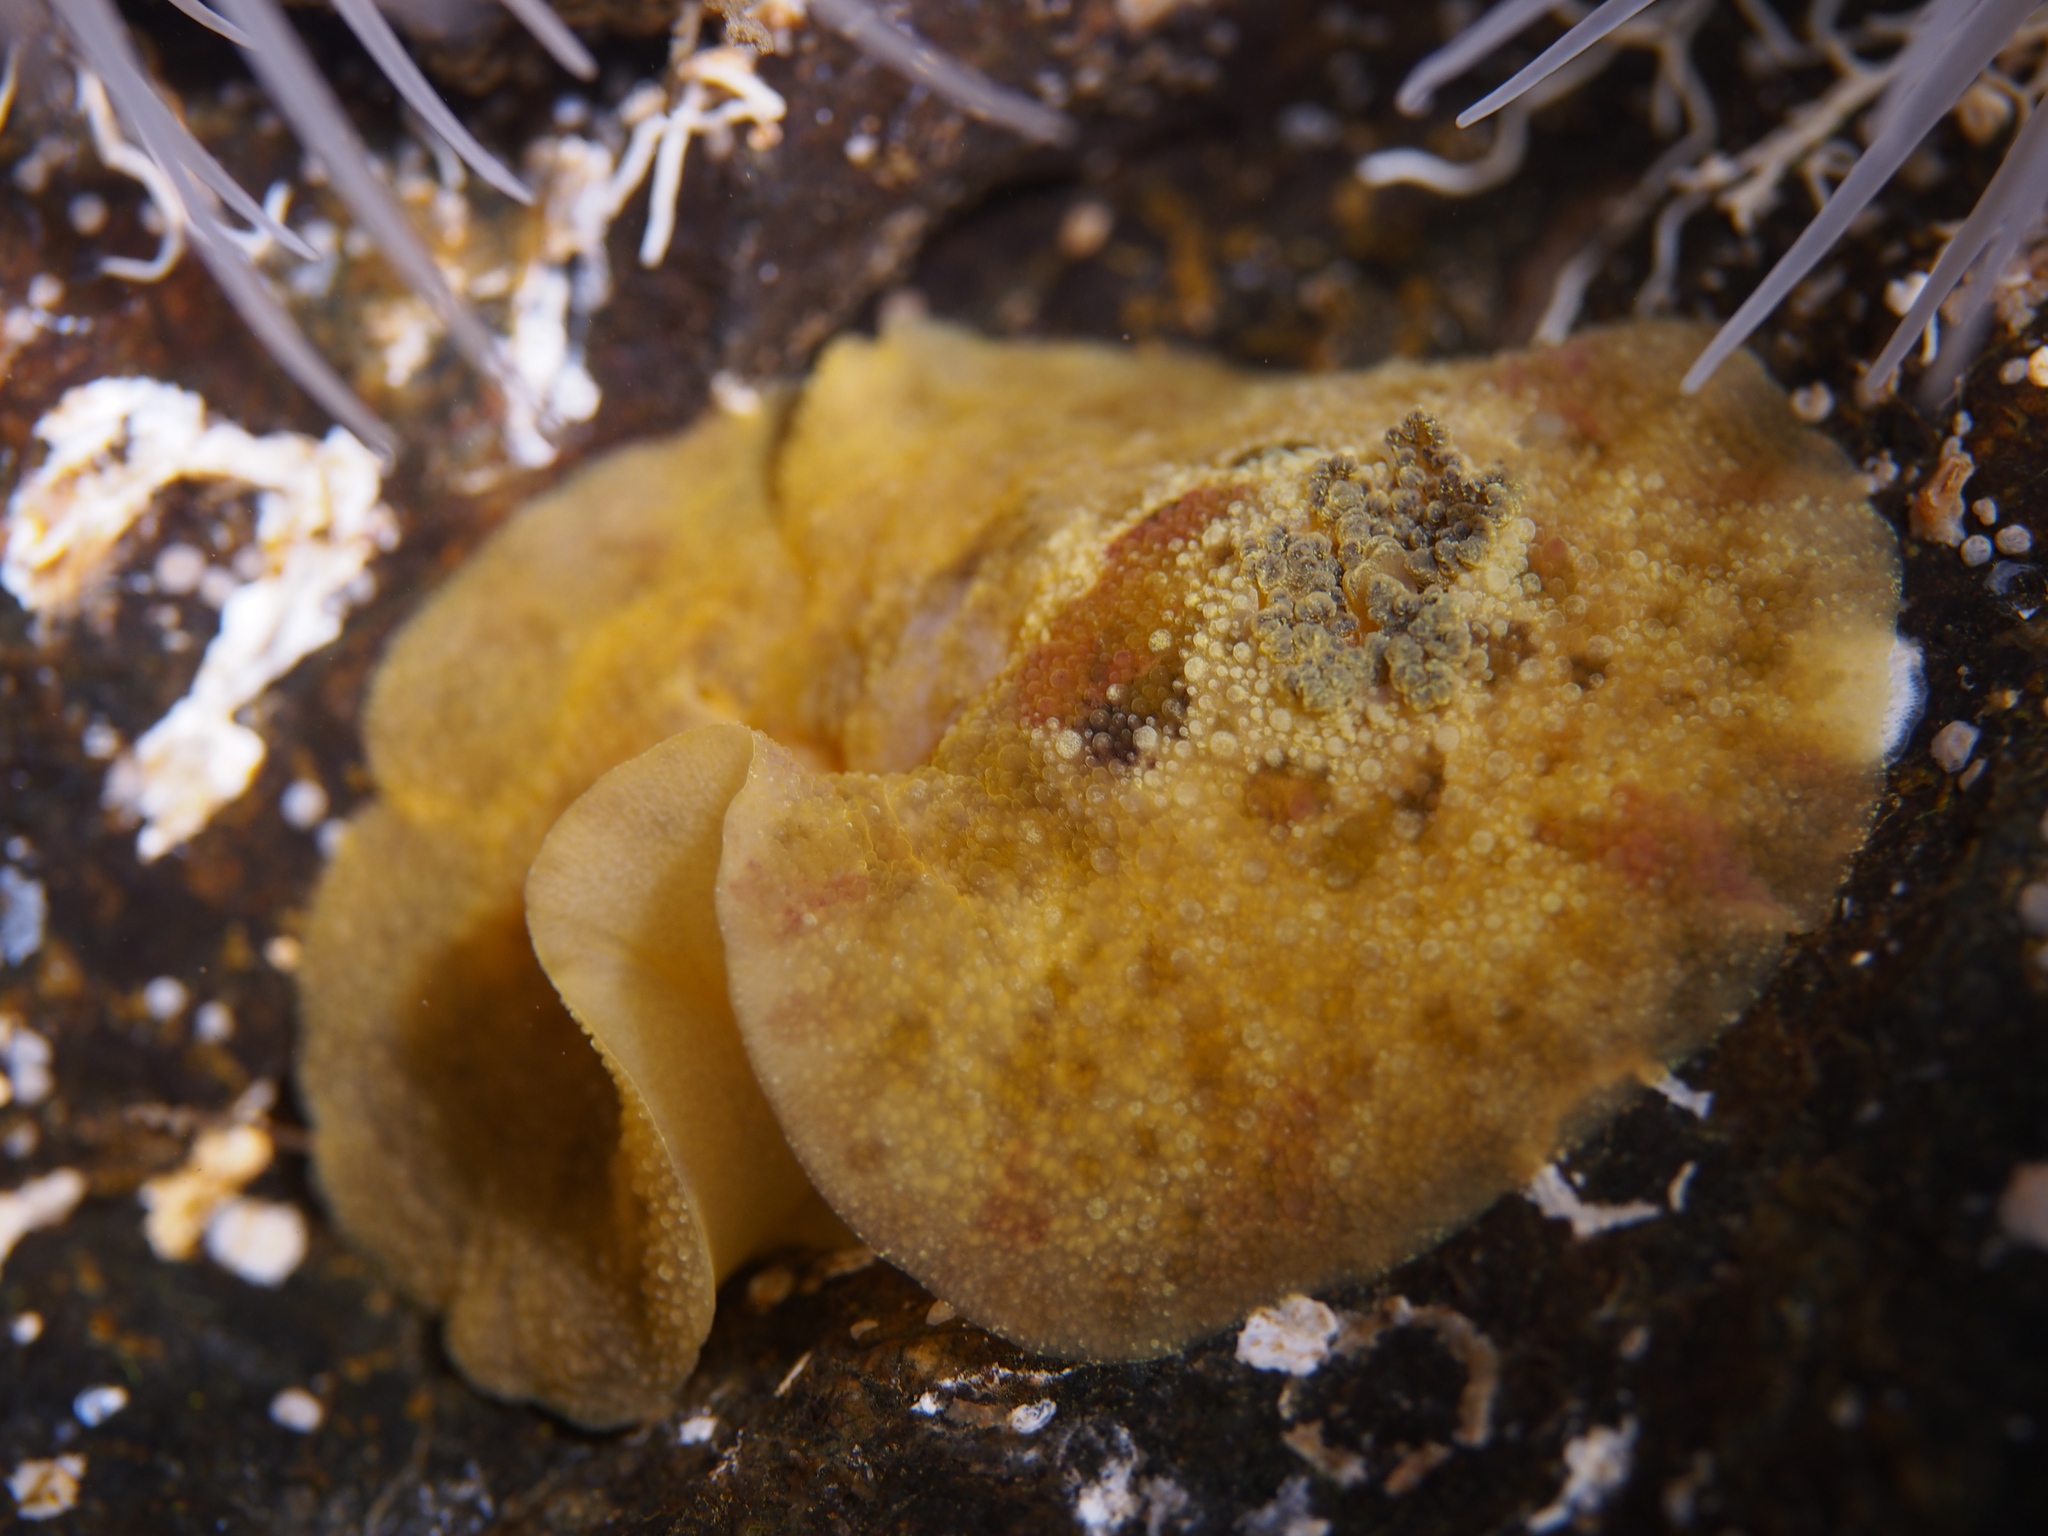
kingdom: Animalia
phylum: Mollusca
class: Gastropoda
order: Nudibranchia
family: Dorididae
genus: Doris
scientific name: Doris pseudoargus
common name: Sea lemon
